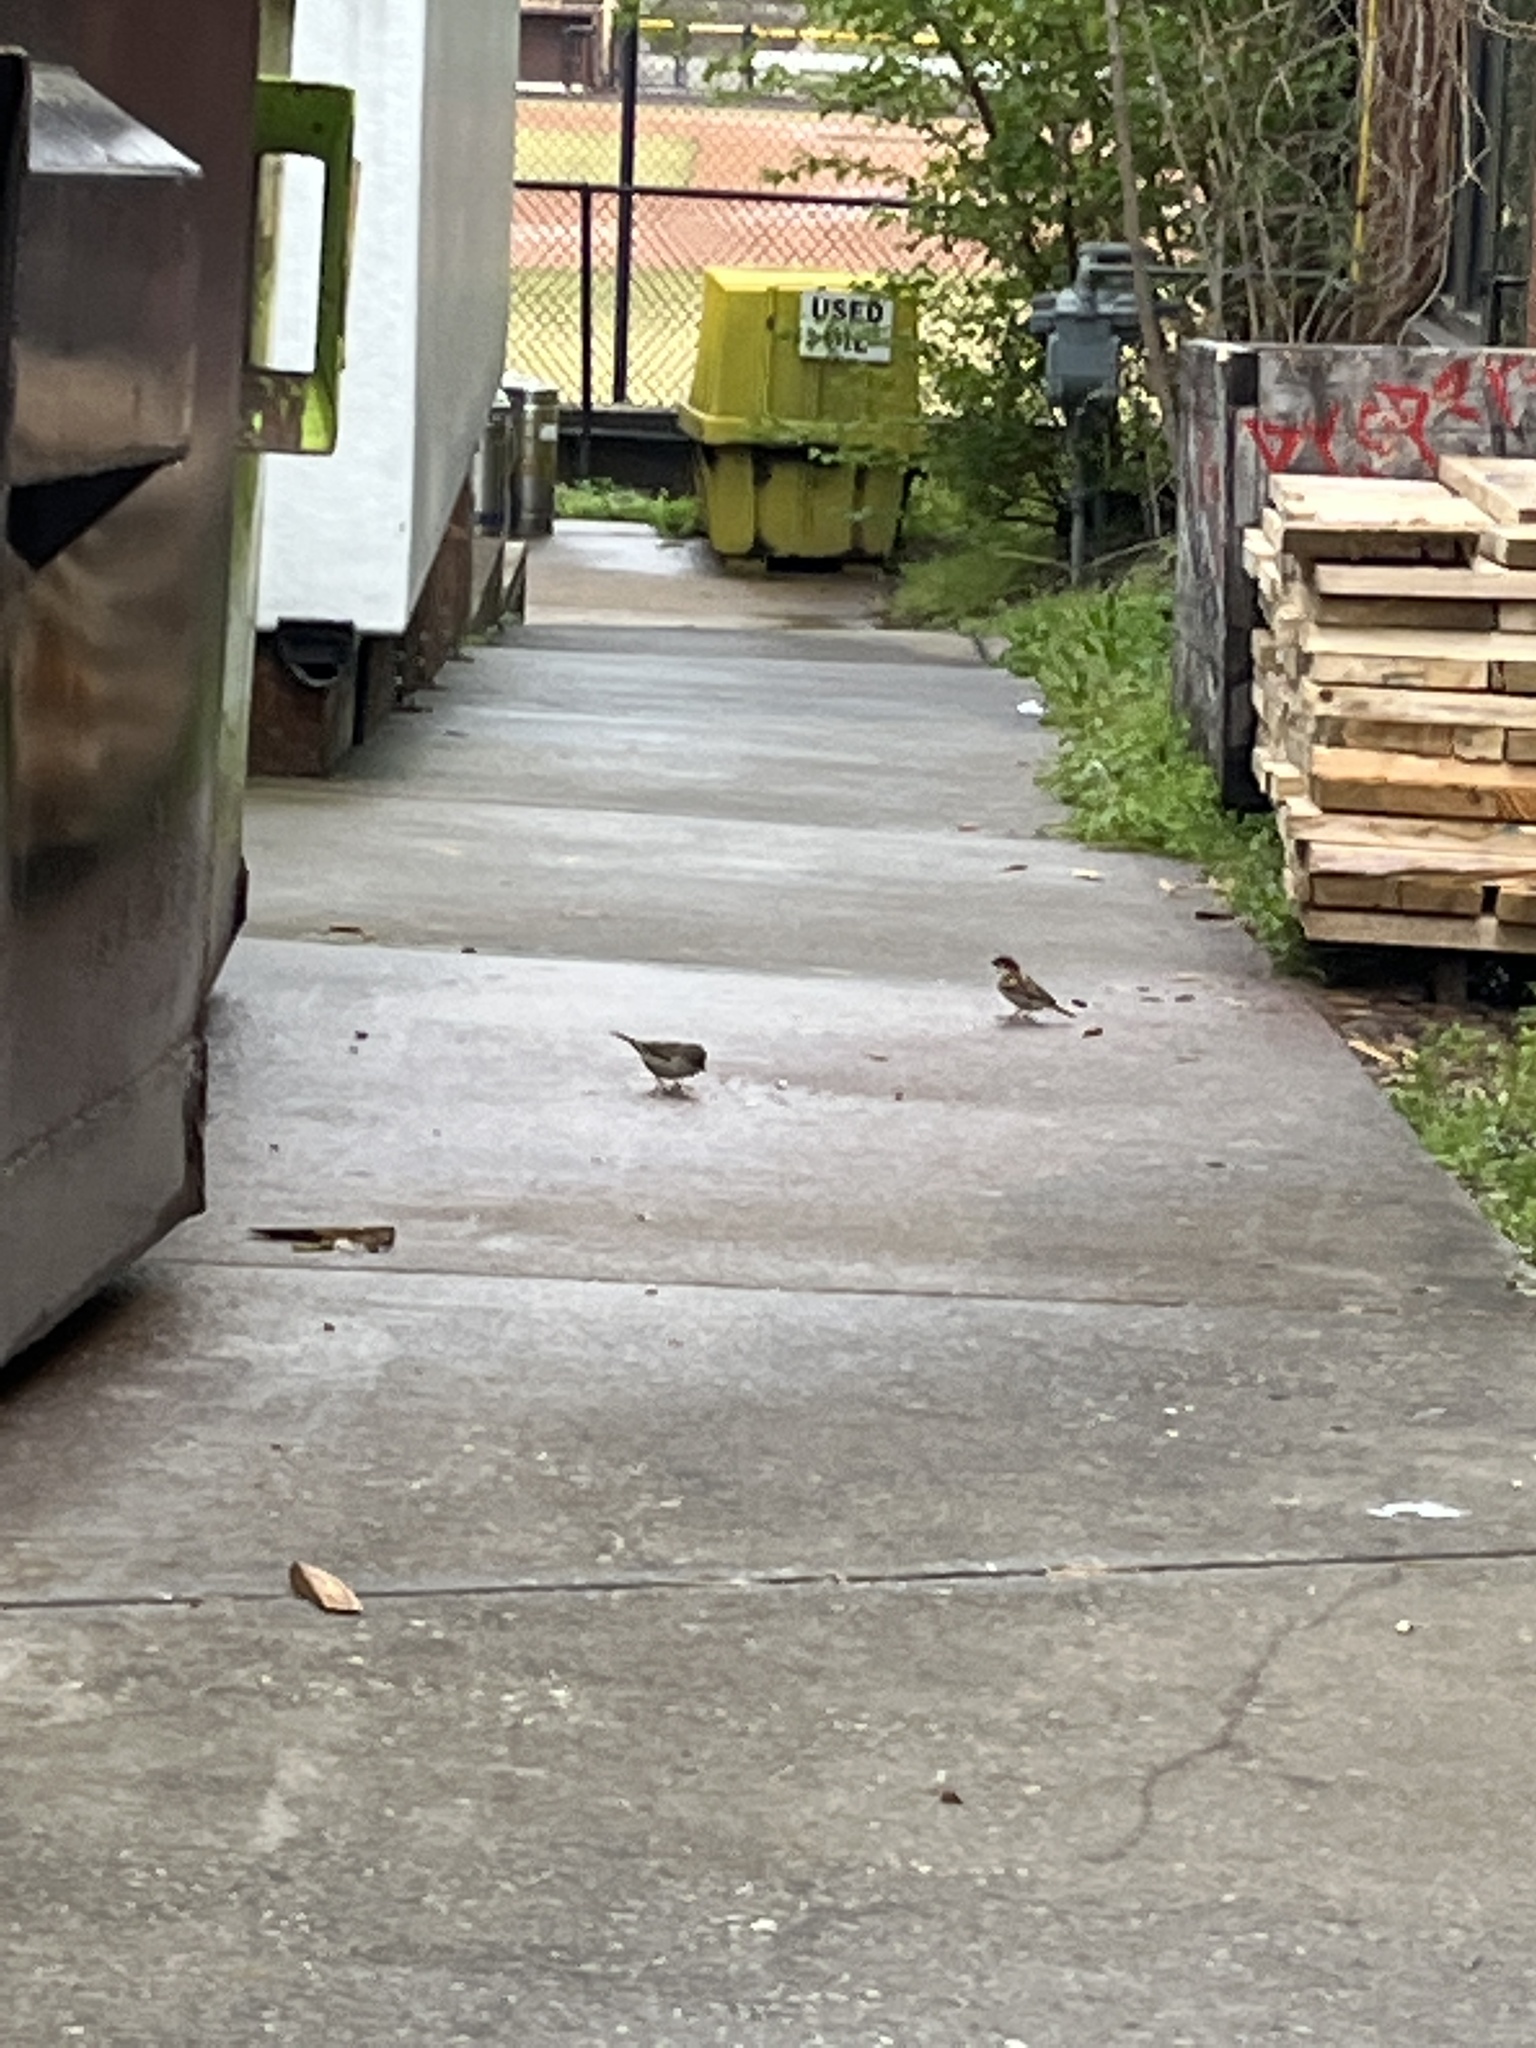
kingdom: Animalia
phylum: Chordata
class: Aves
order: Passeriformes
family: Passeridae
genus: Passer
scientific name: Passer domesticus
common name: House sparrow
